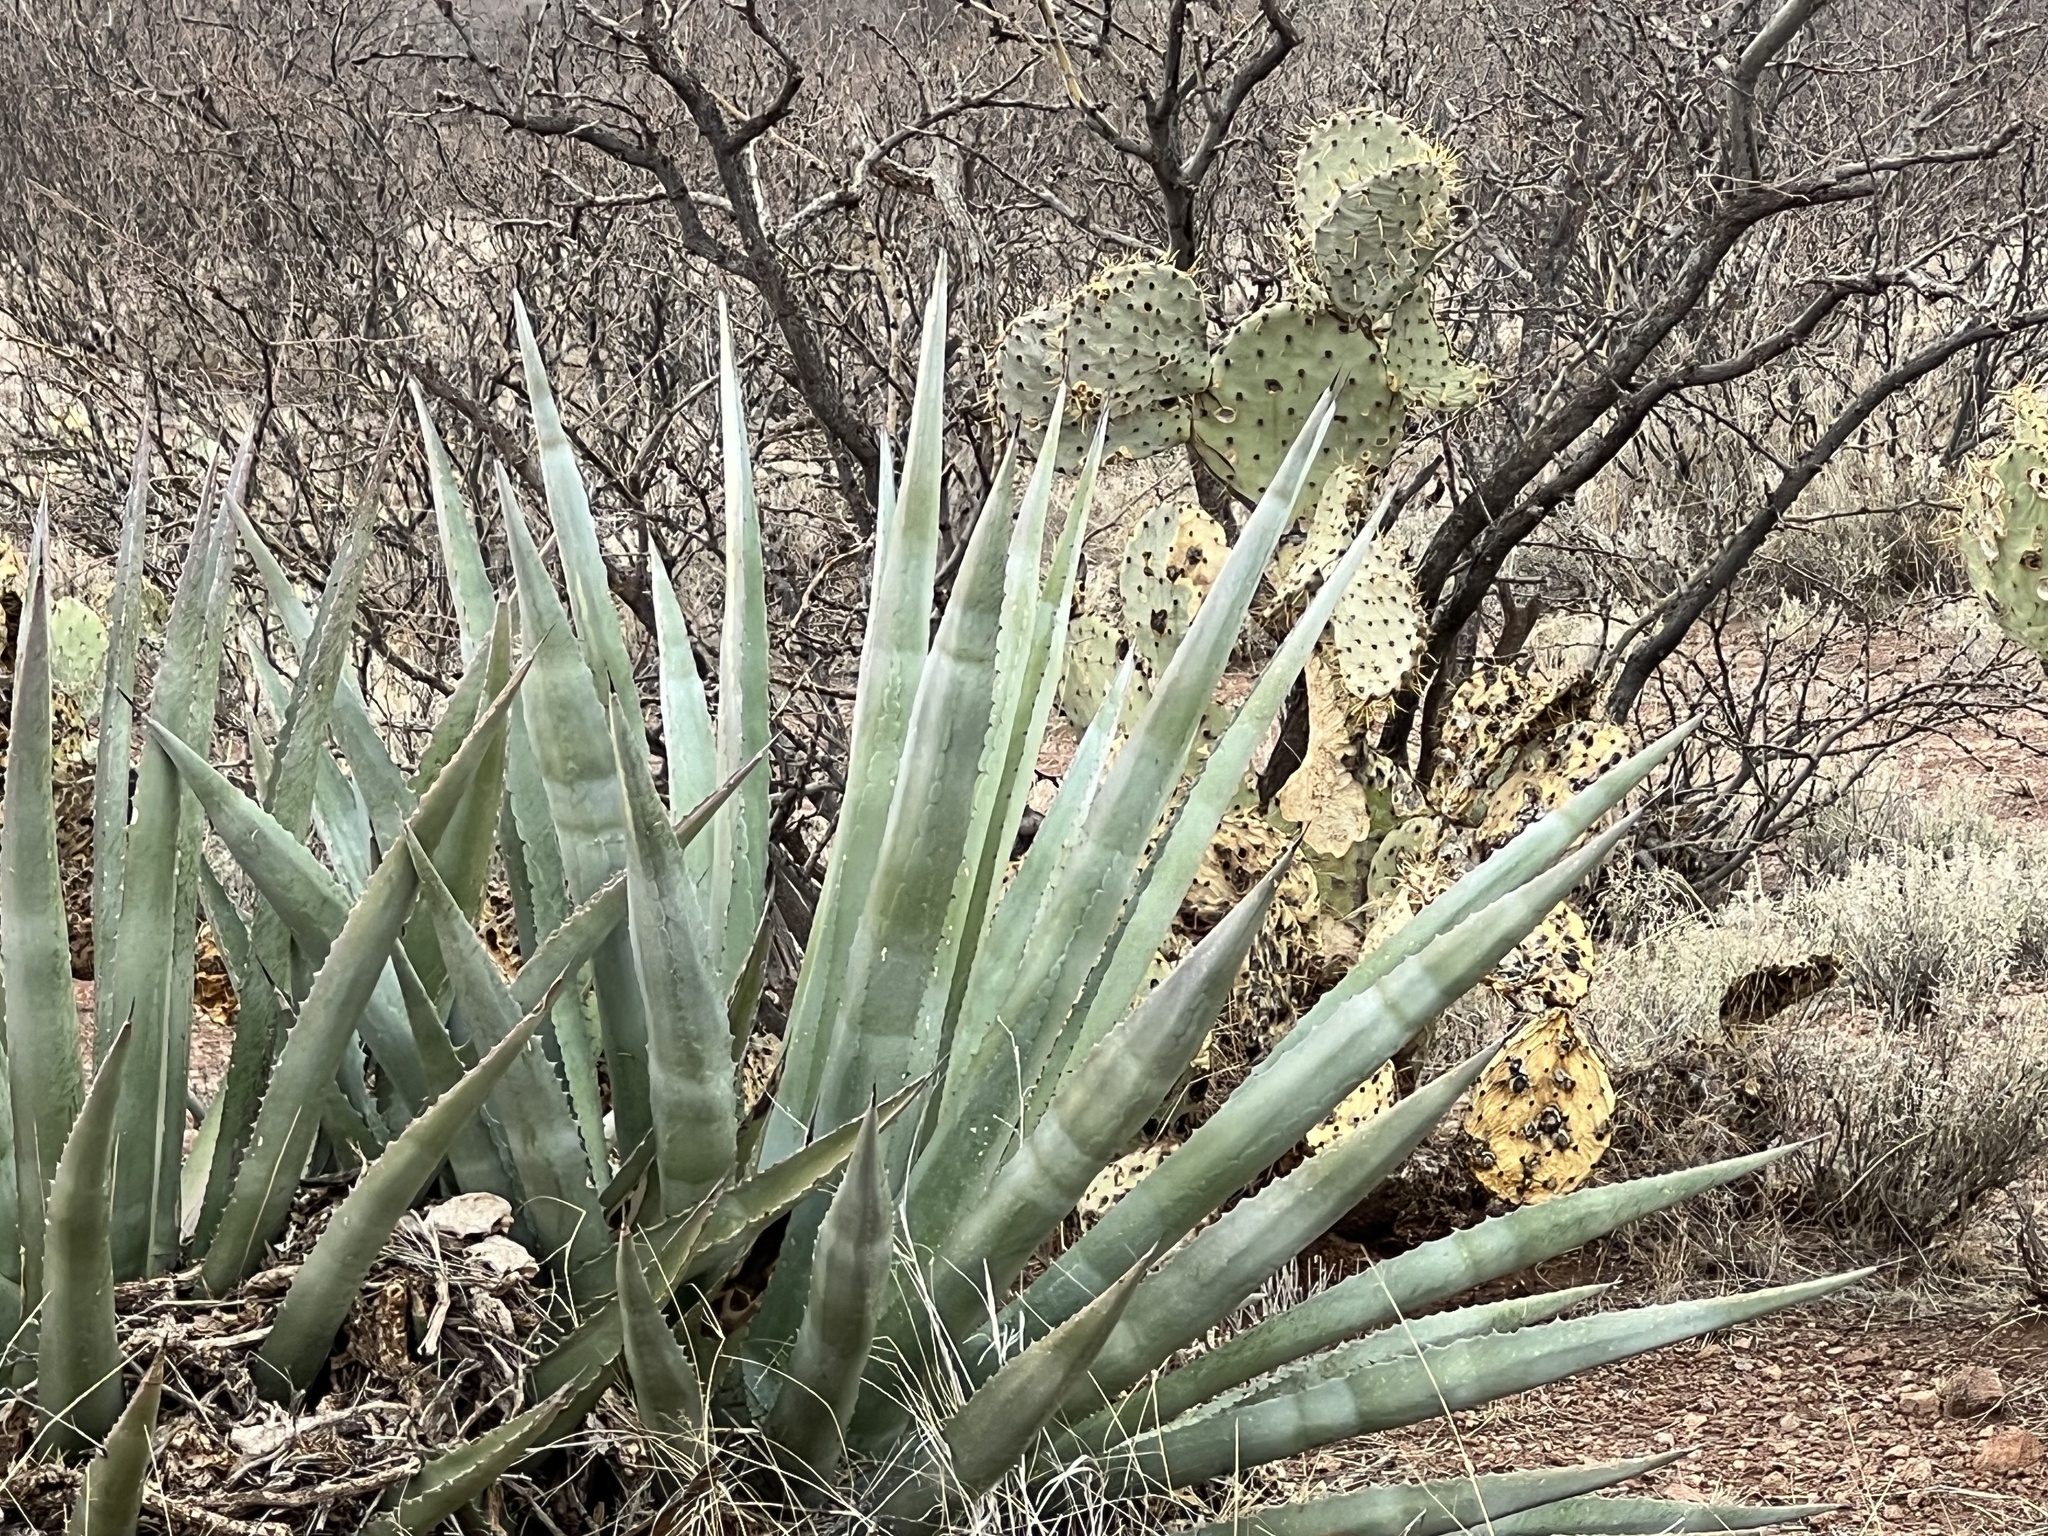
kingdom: Plantae
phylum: Tracheophyta
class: Liliopsida
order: Asparagales
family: Asparagaceae
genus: Agave
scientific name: Agave palmeri
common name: Palmer agave
